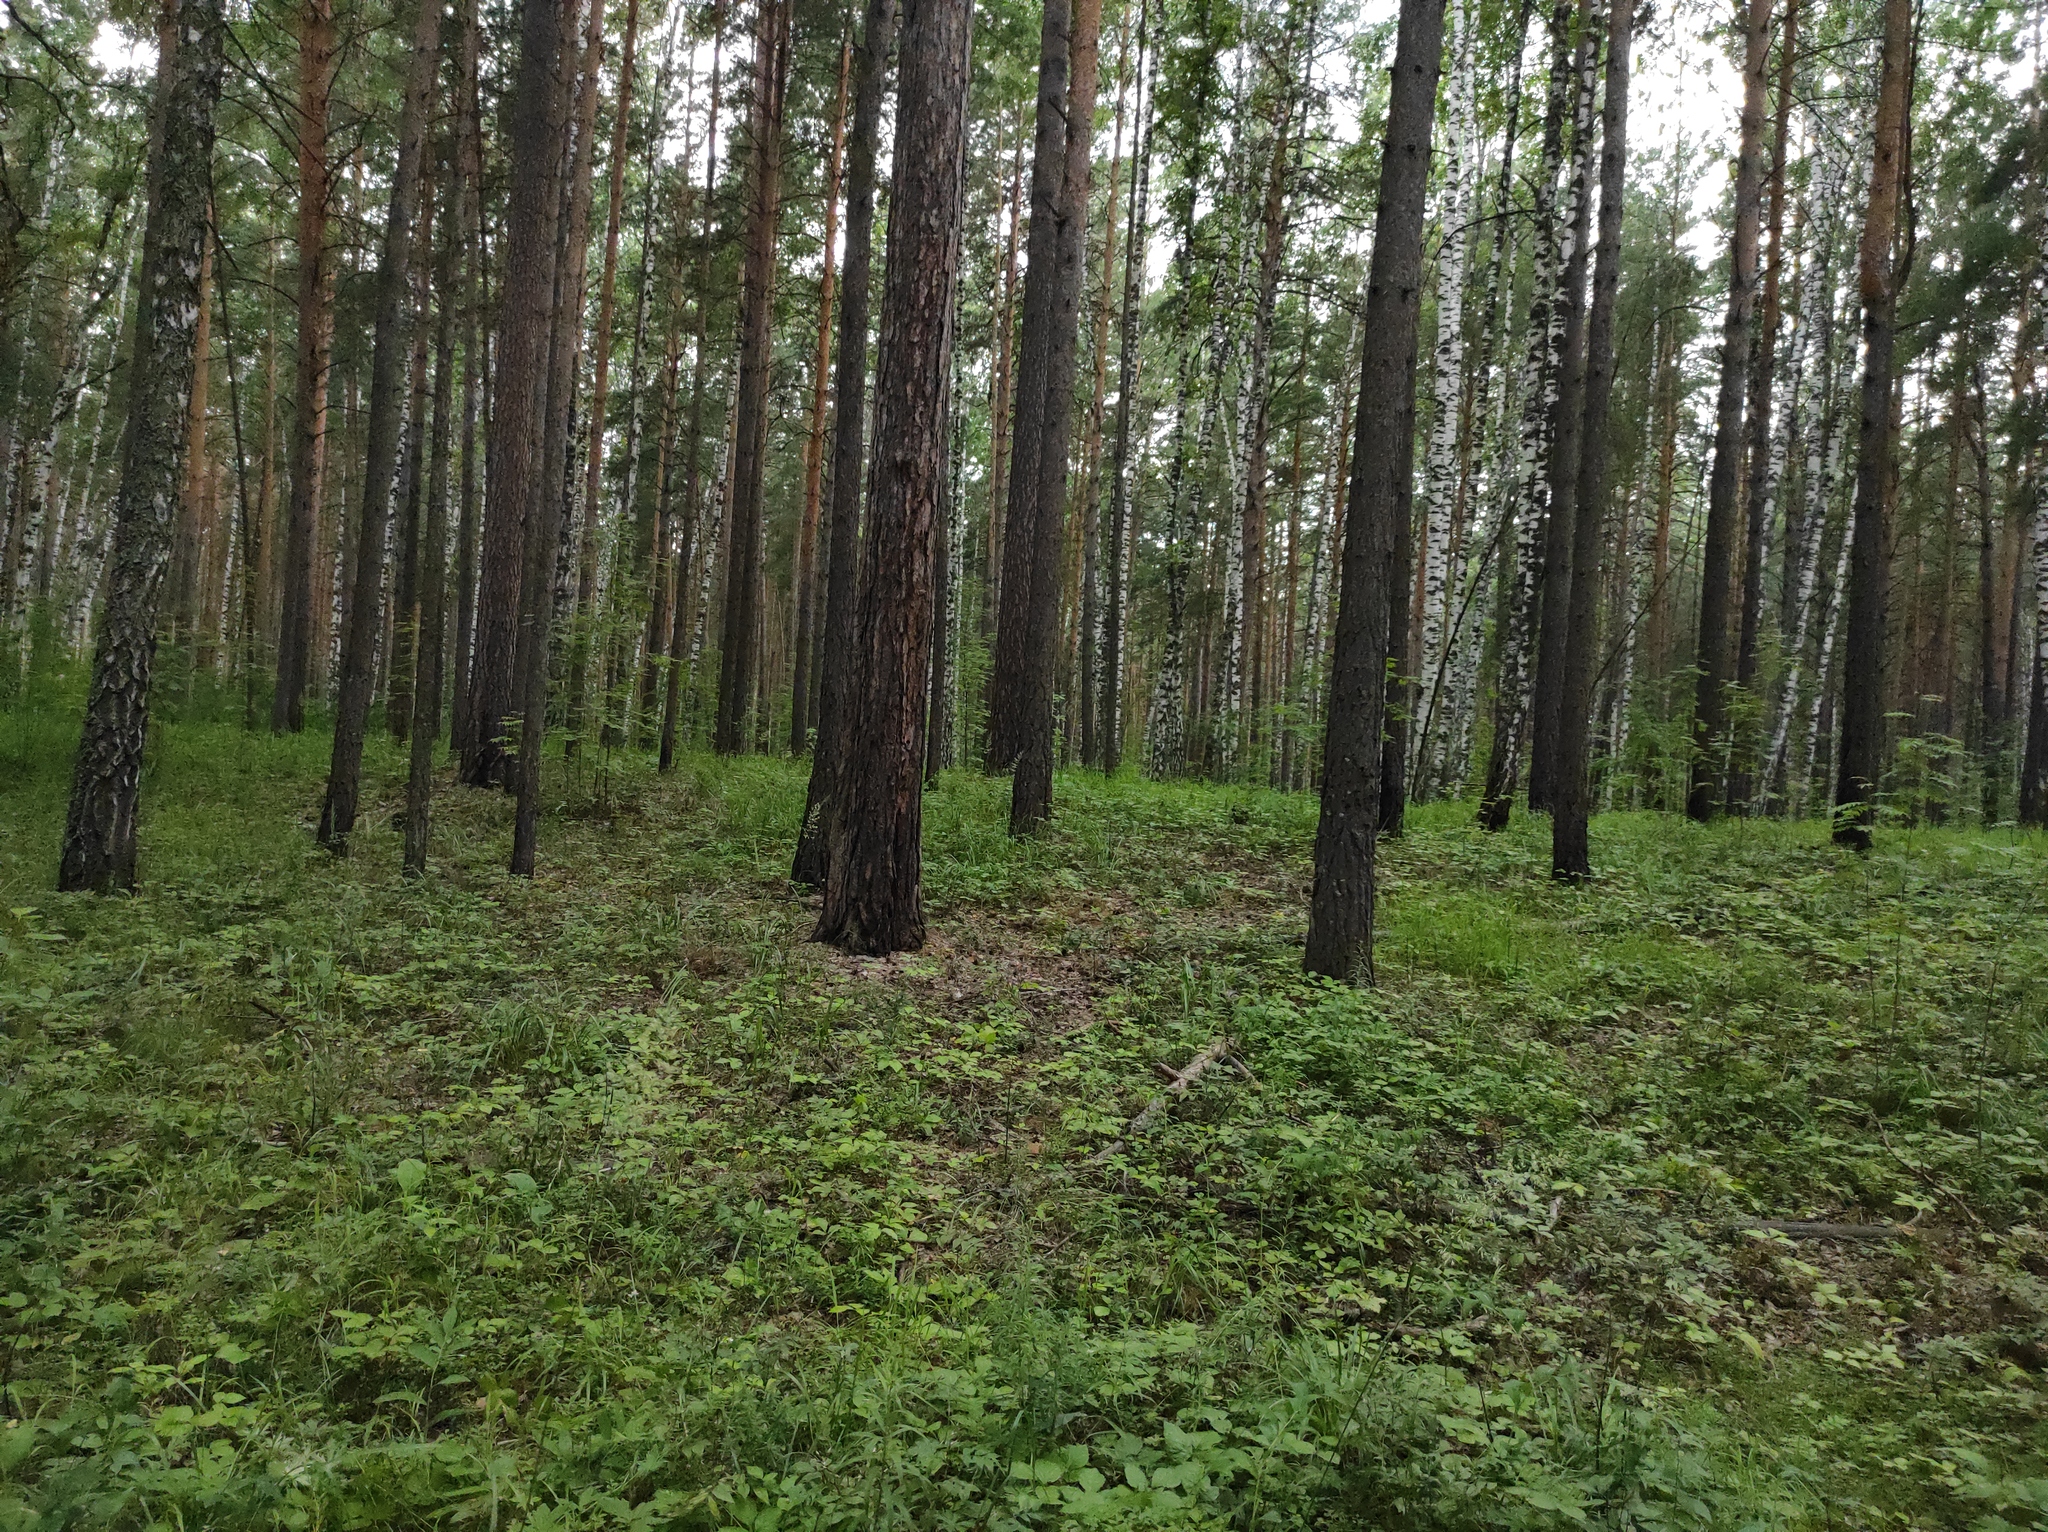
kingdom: Plantae
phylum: Tracheophyta
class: Pinopsida
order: Pinales
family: Pinaceae
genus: Pinus
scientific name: Pinus sylvestris
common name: Scots pine
